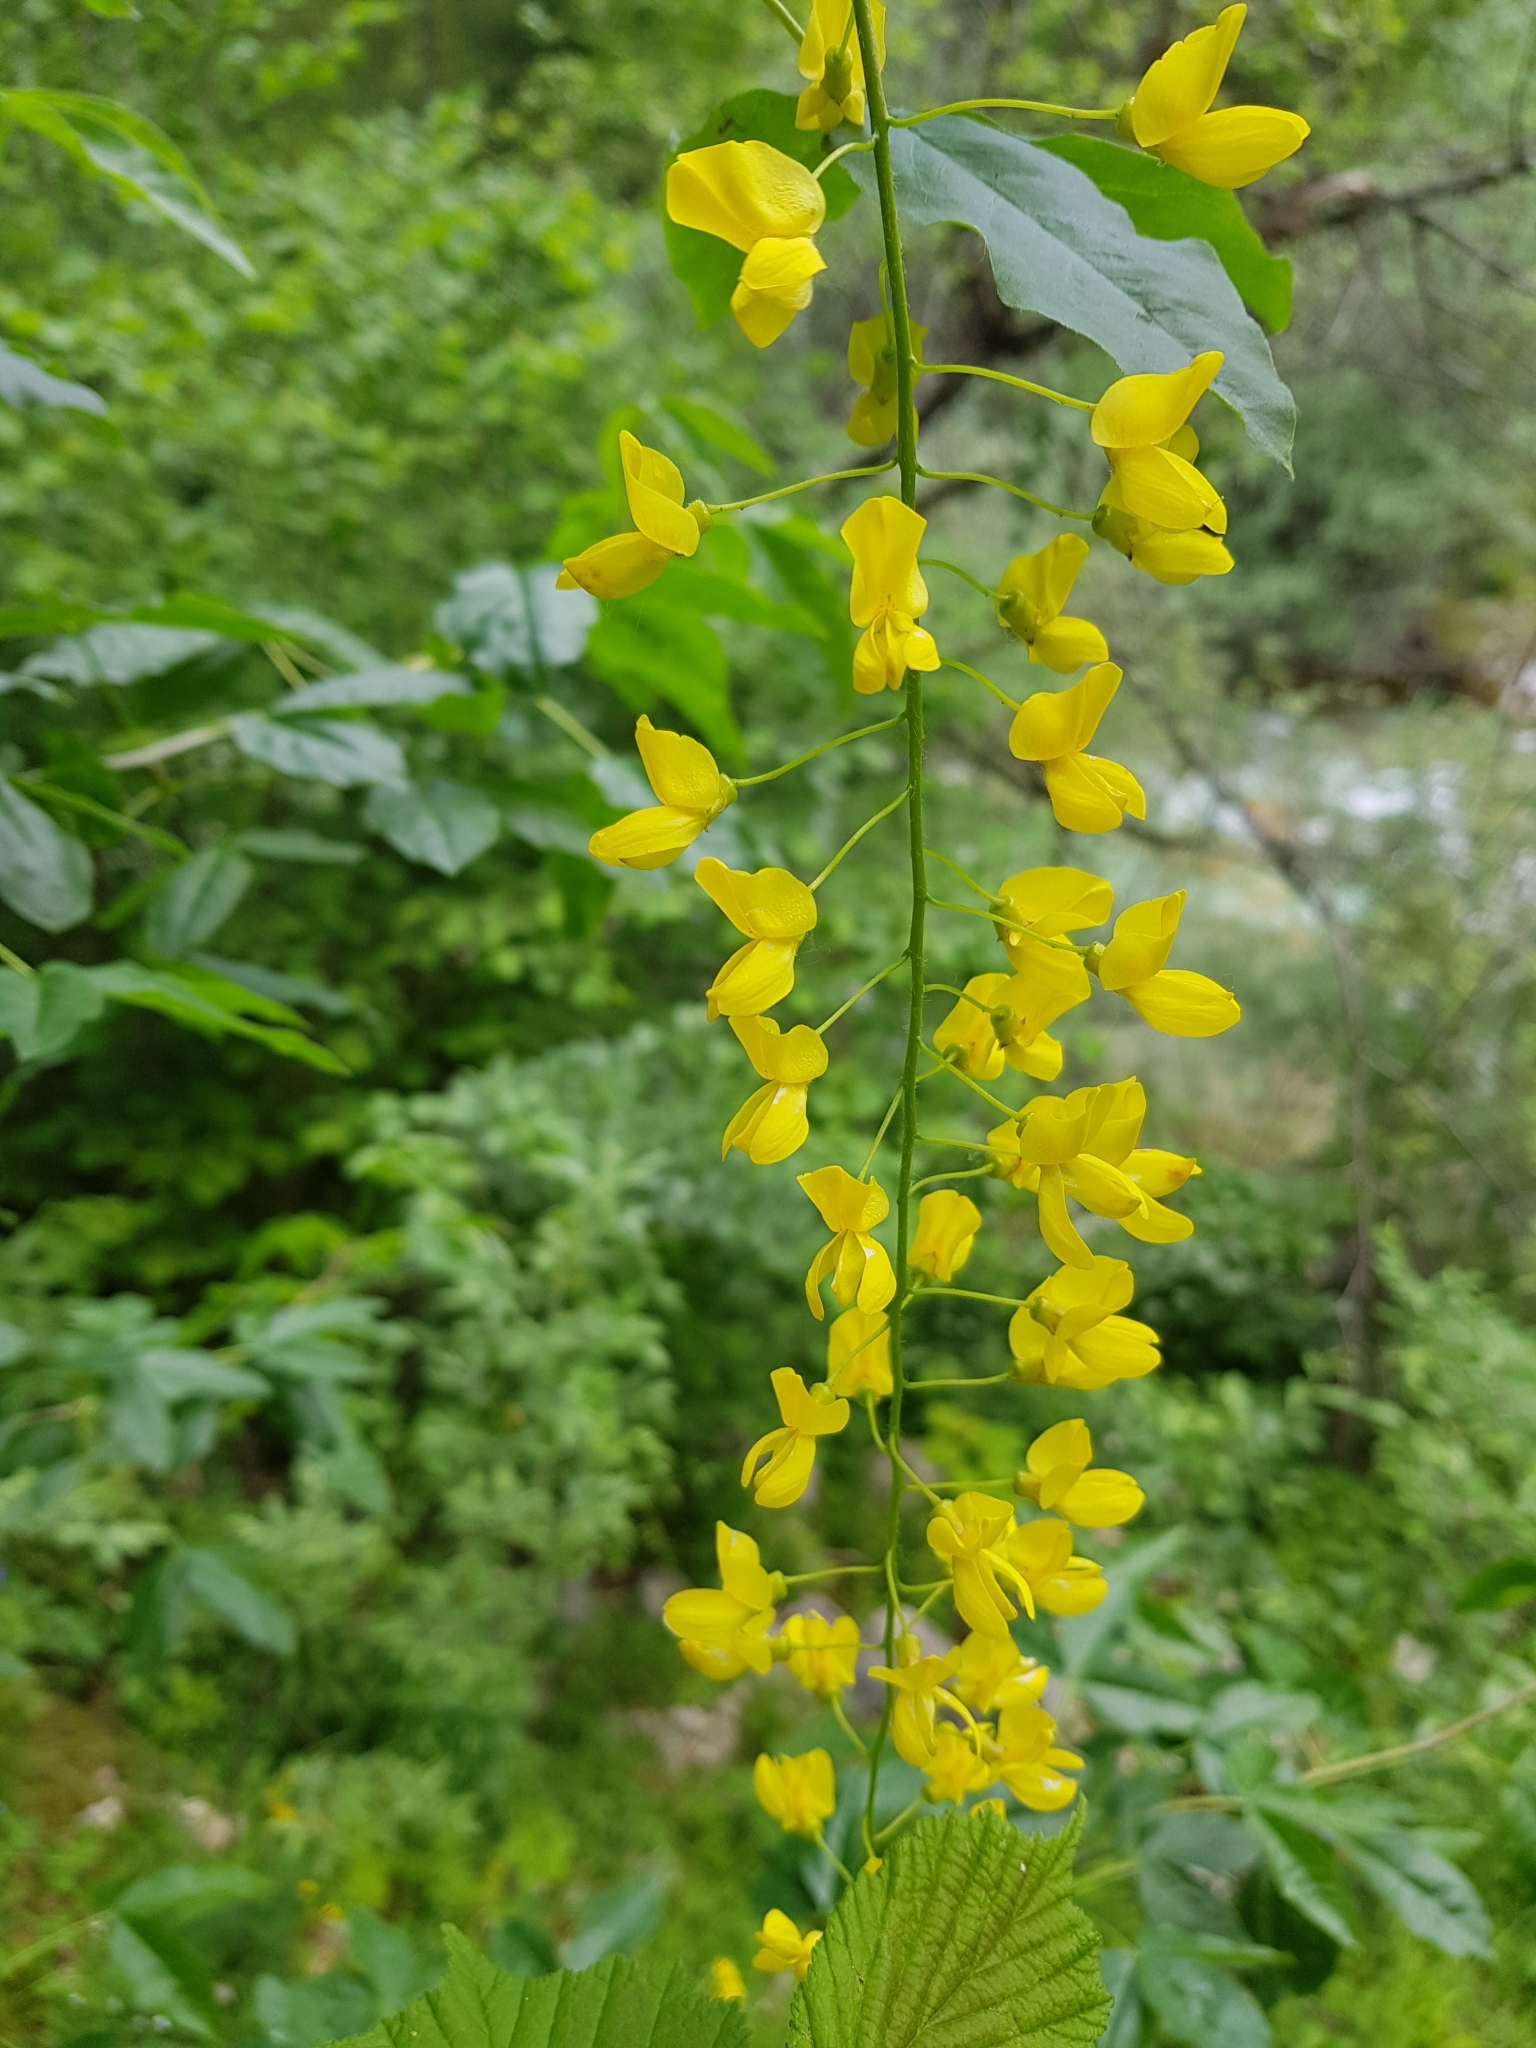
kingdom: Plantae
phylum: Tracheophyta
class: Magnoliopsida
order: Fabales
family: Fabaceae
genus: Laburnum
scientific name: Laburnum alpinum
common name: Scottish laburnum
